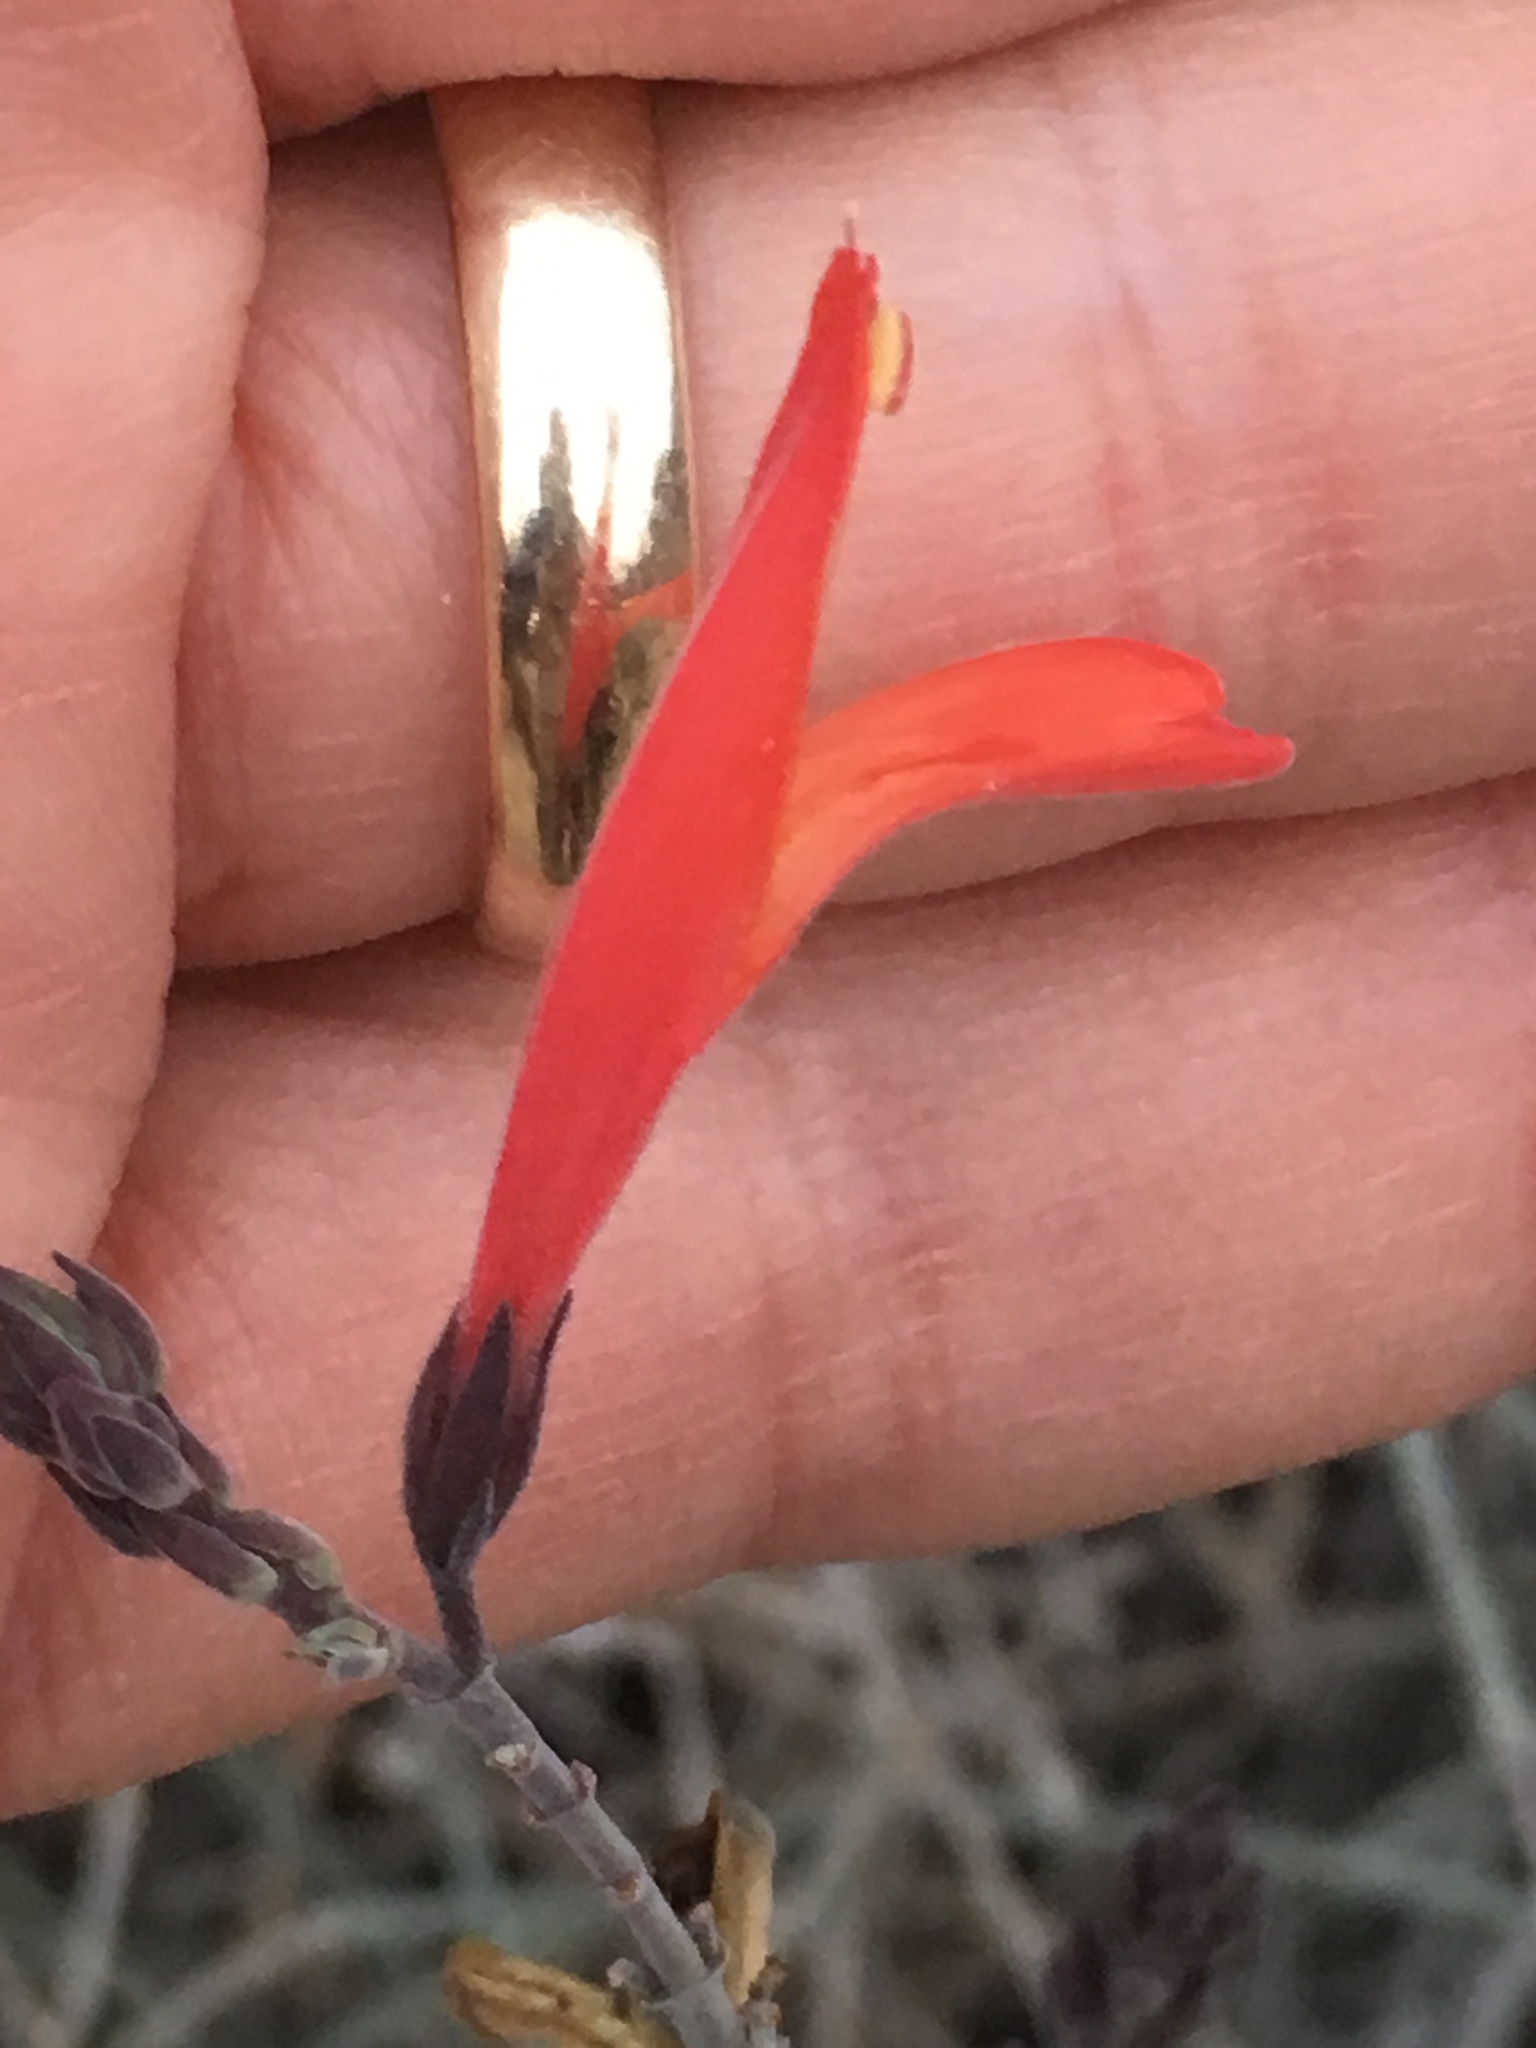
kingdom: Plantae
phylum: Tracheophyta
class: Magnoliopsida
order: Lamiales
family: Acanthaceae
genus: Justicia
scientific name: Justicia californica
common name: Chuparosa-honeysuckle
